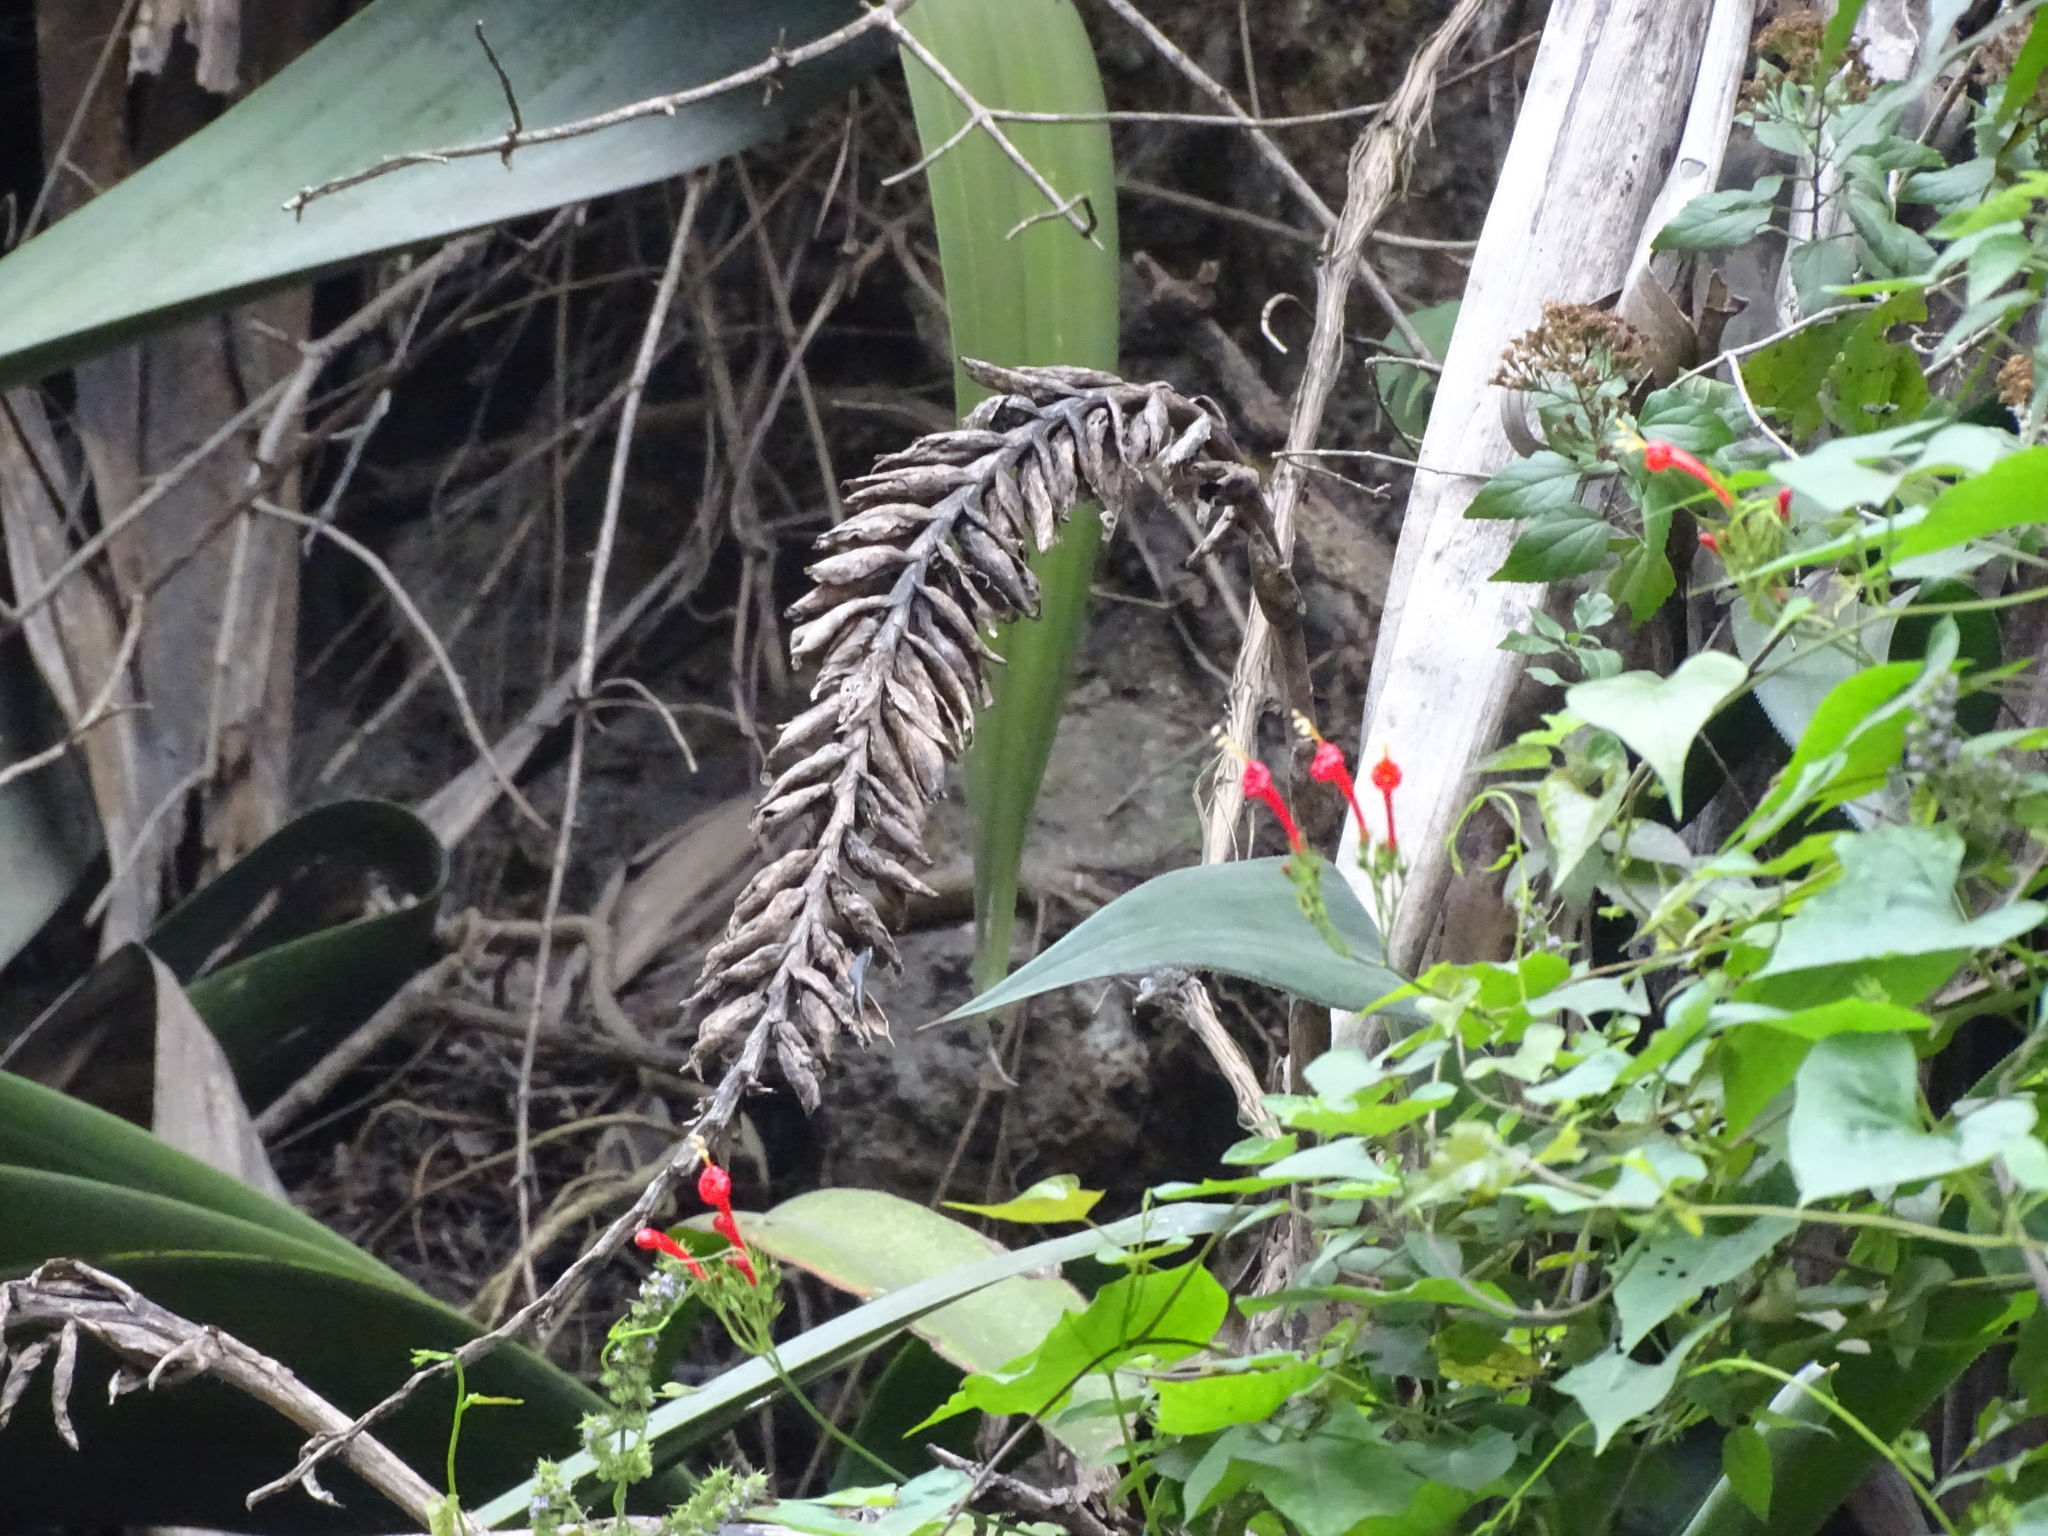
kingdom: Plantae
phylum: Tracheophyta
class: Liliopsida
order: Poales
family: Bromeliaceae
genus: Pseudalcantarea
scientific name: Pseudalcantarea grandis
